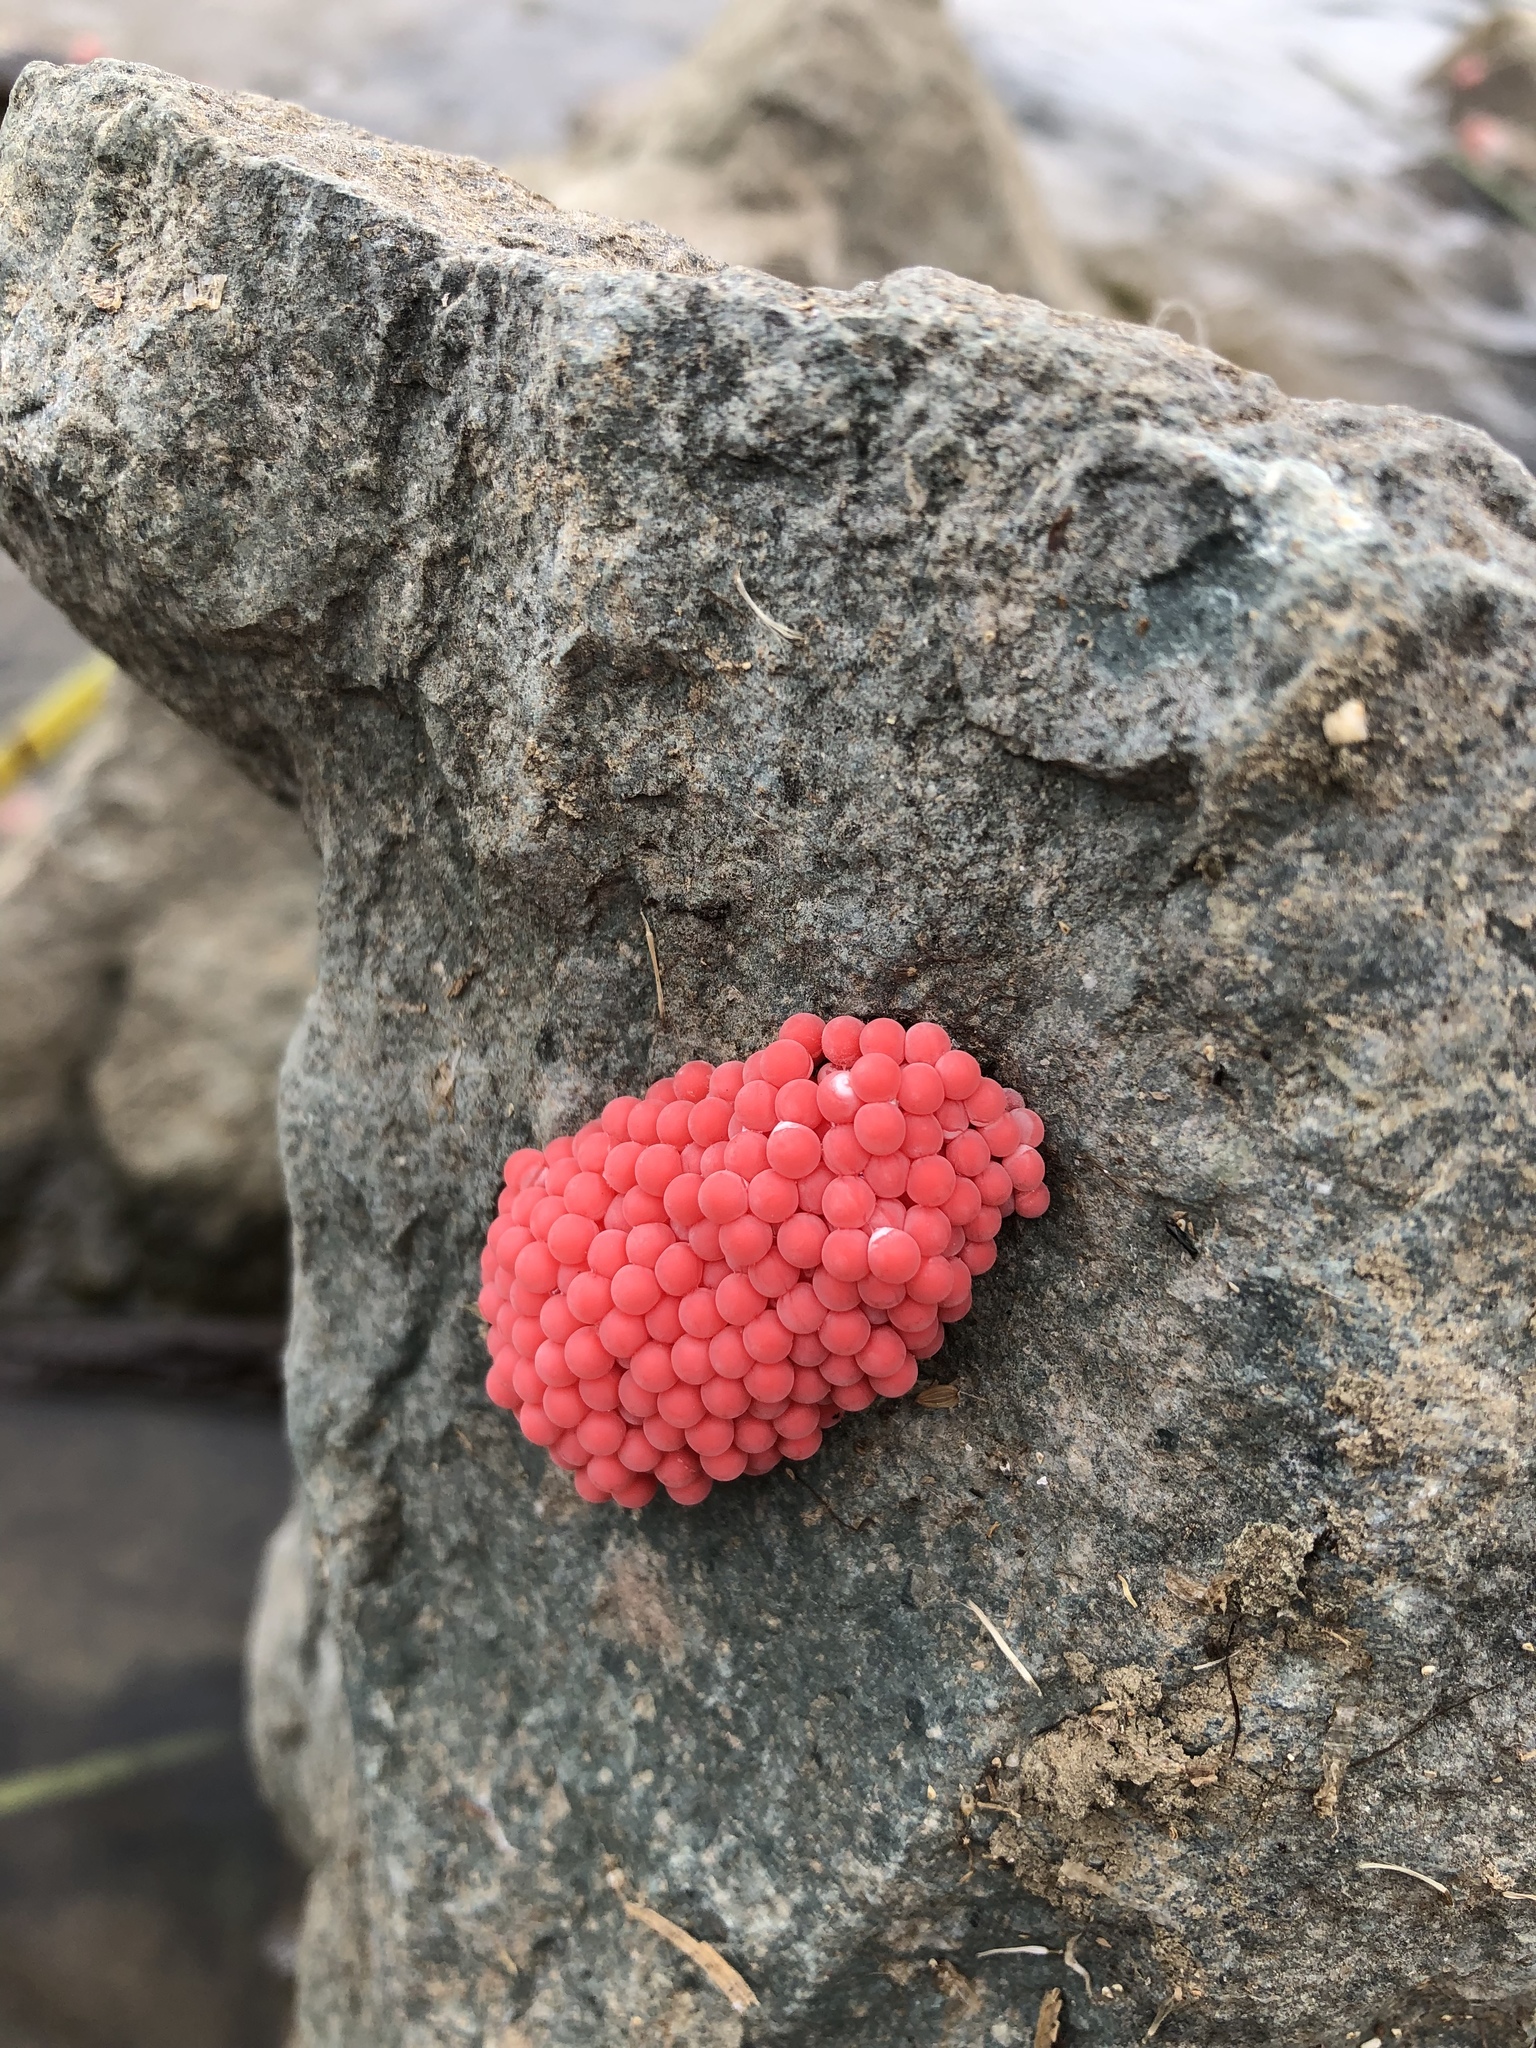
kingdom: Animalia
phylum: Mollusca
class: Gastropoda
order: Architaenioglossa
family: Ampullariidae
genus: Pomacea
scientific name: Pomacea canaliculata
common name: Channeled applesnail
